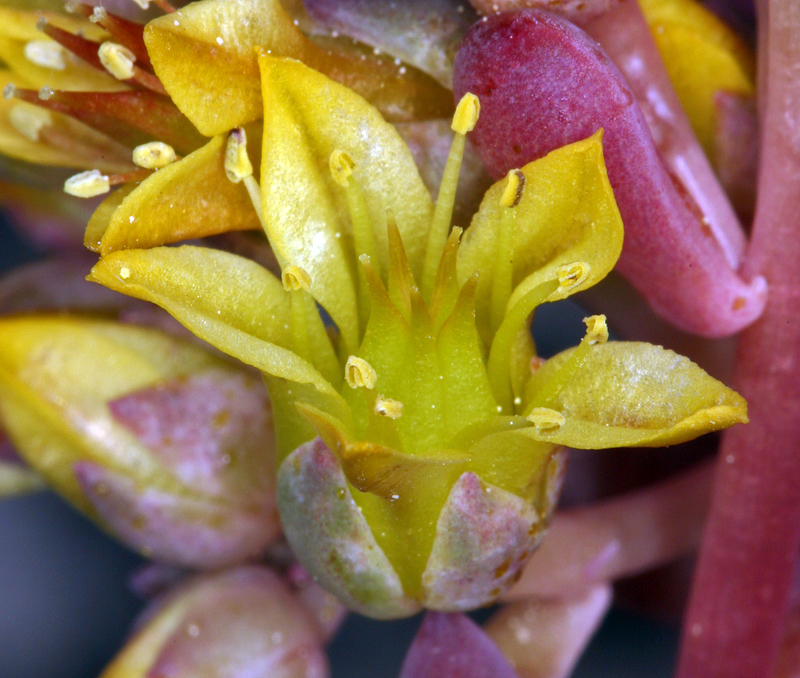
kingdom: Plantae
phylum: Tracheophyta
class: Magnoliopsida
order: Saxifragales
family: Crassulaceae
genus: Sedum
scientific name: Sedum obtusatum
